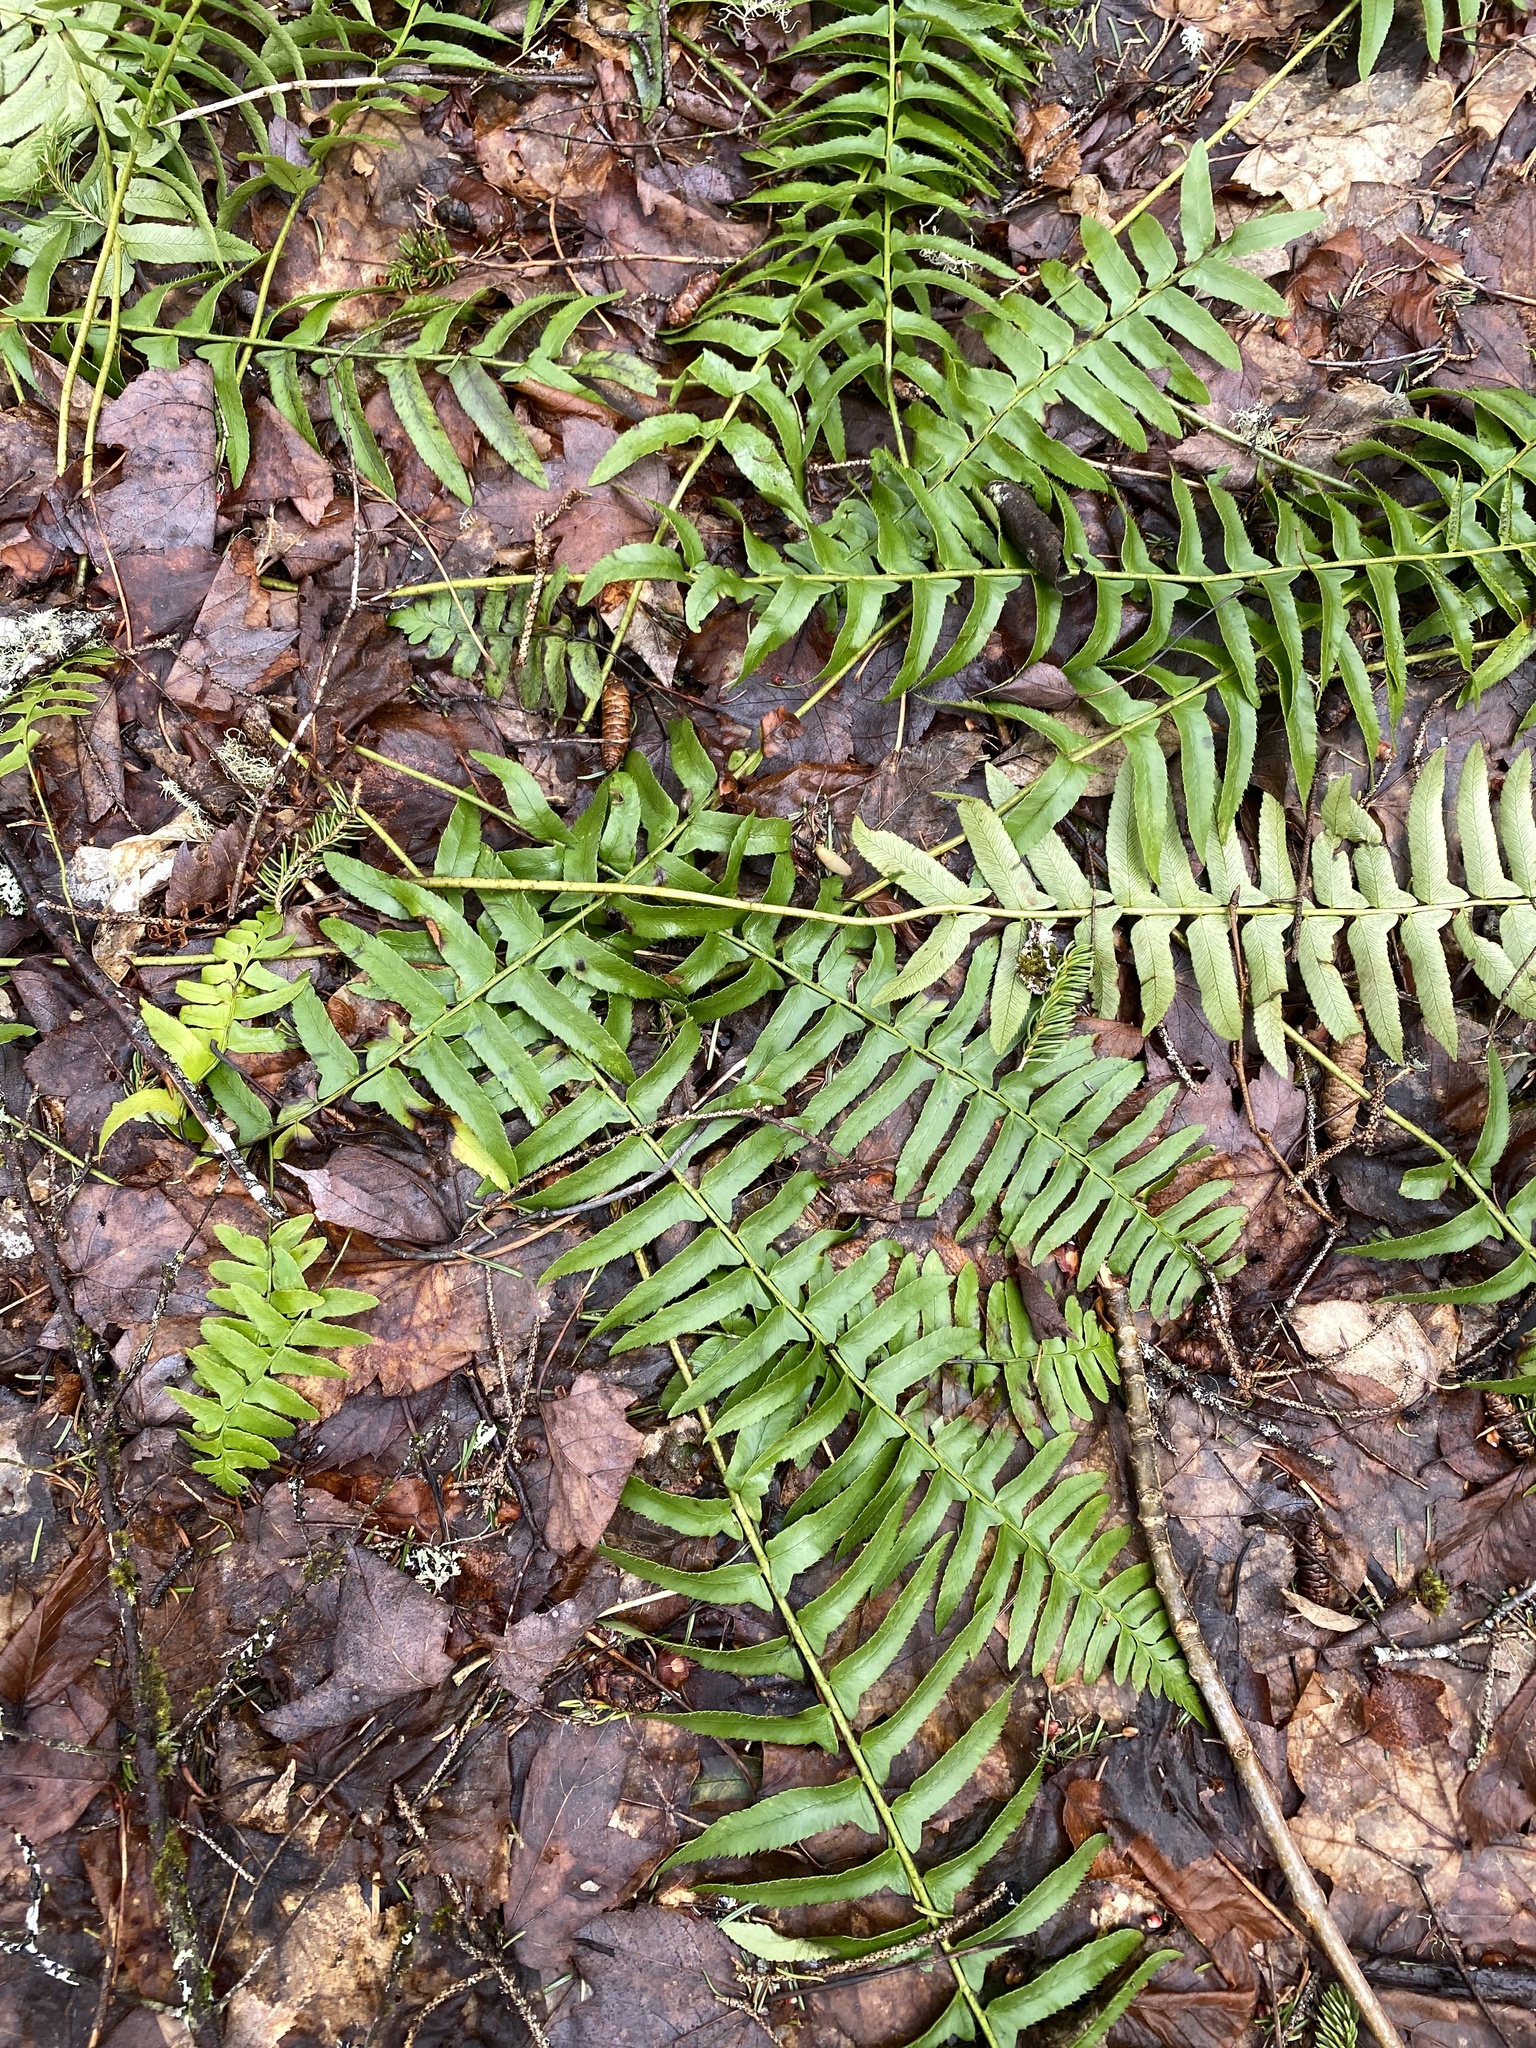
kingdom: Plantae
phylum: Tracheophyta
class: Polypodiopsida
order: Polypodiales
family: Dryopteridaceae
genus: Polystichum
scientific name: Polystichum acrostichoides
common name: Christmas fern
